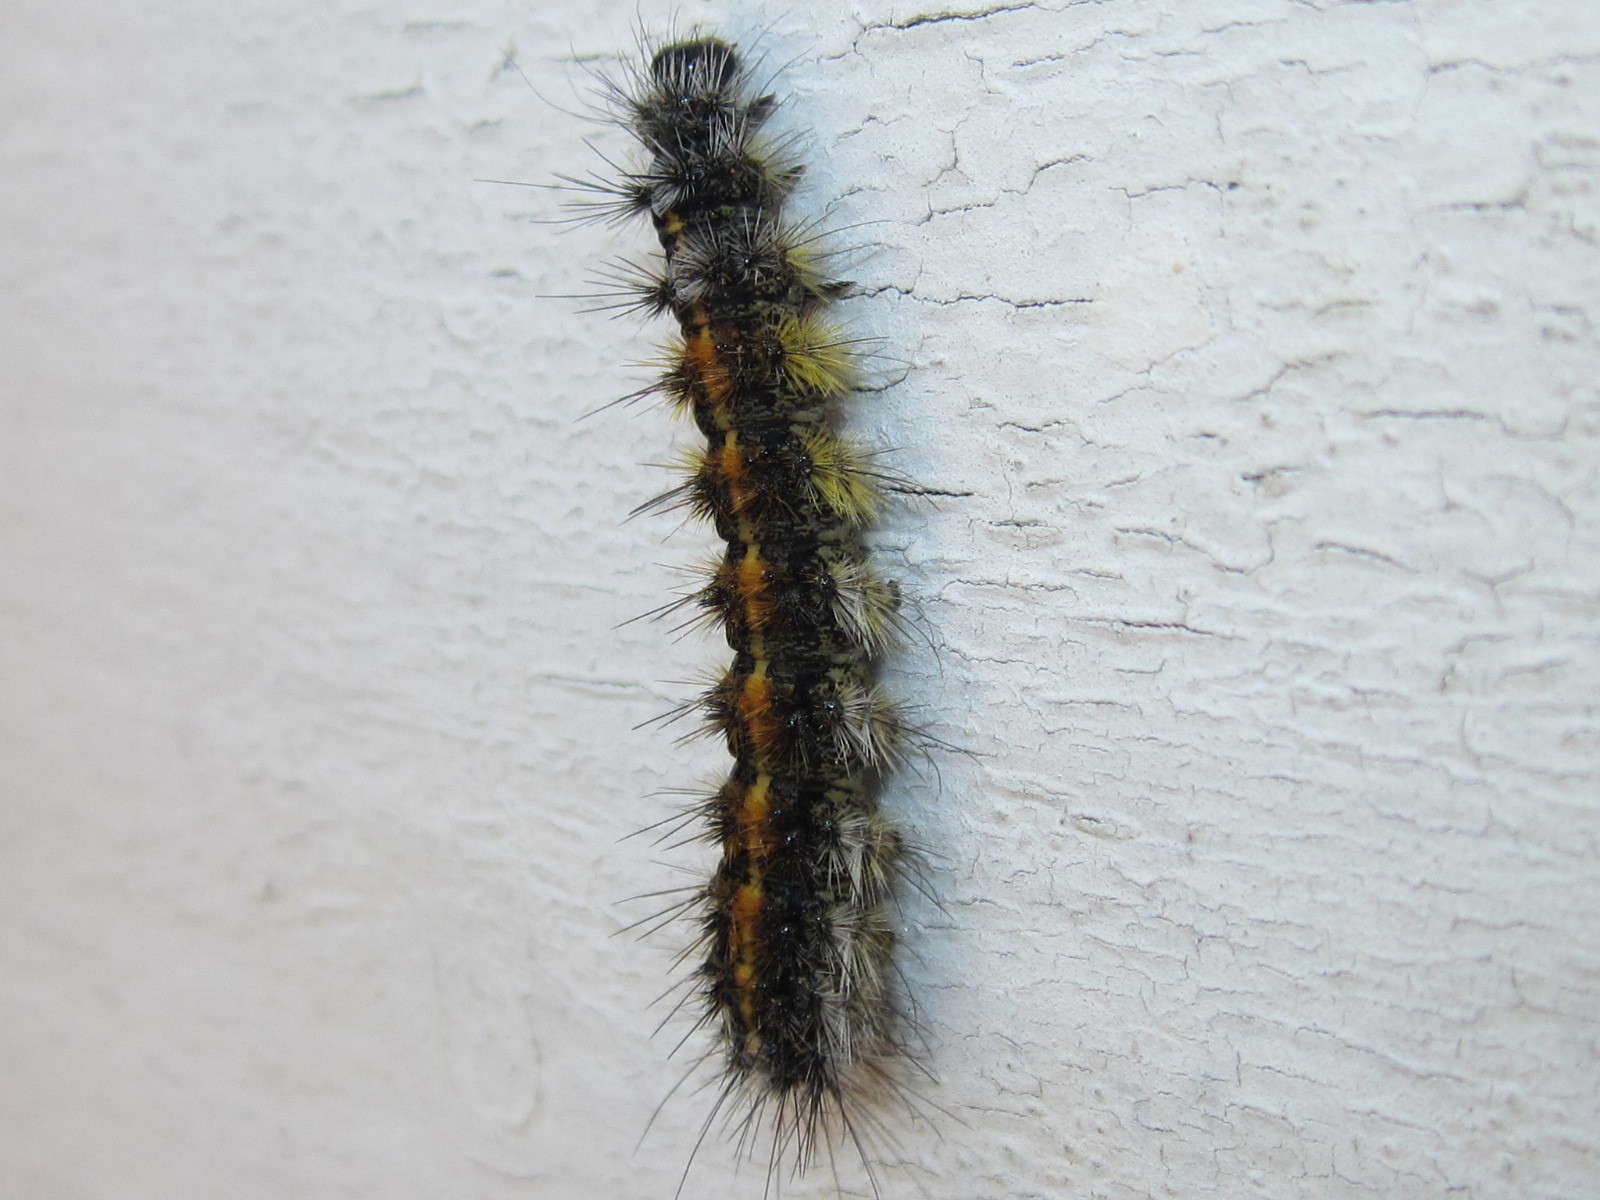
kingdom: Animalia
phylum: Arthropoda
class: Insecta
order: Lepidoptera
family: Erebidae
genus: Chilesia
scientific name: Chilesia
